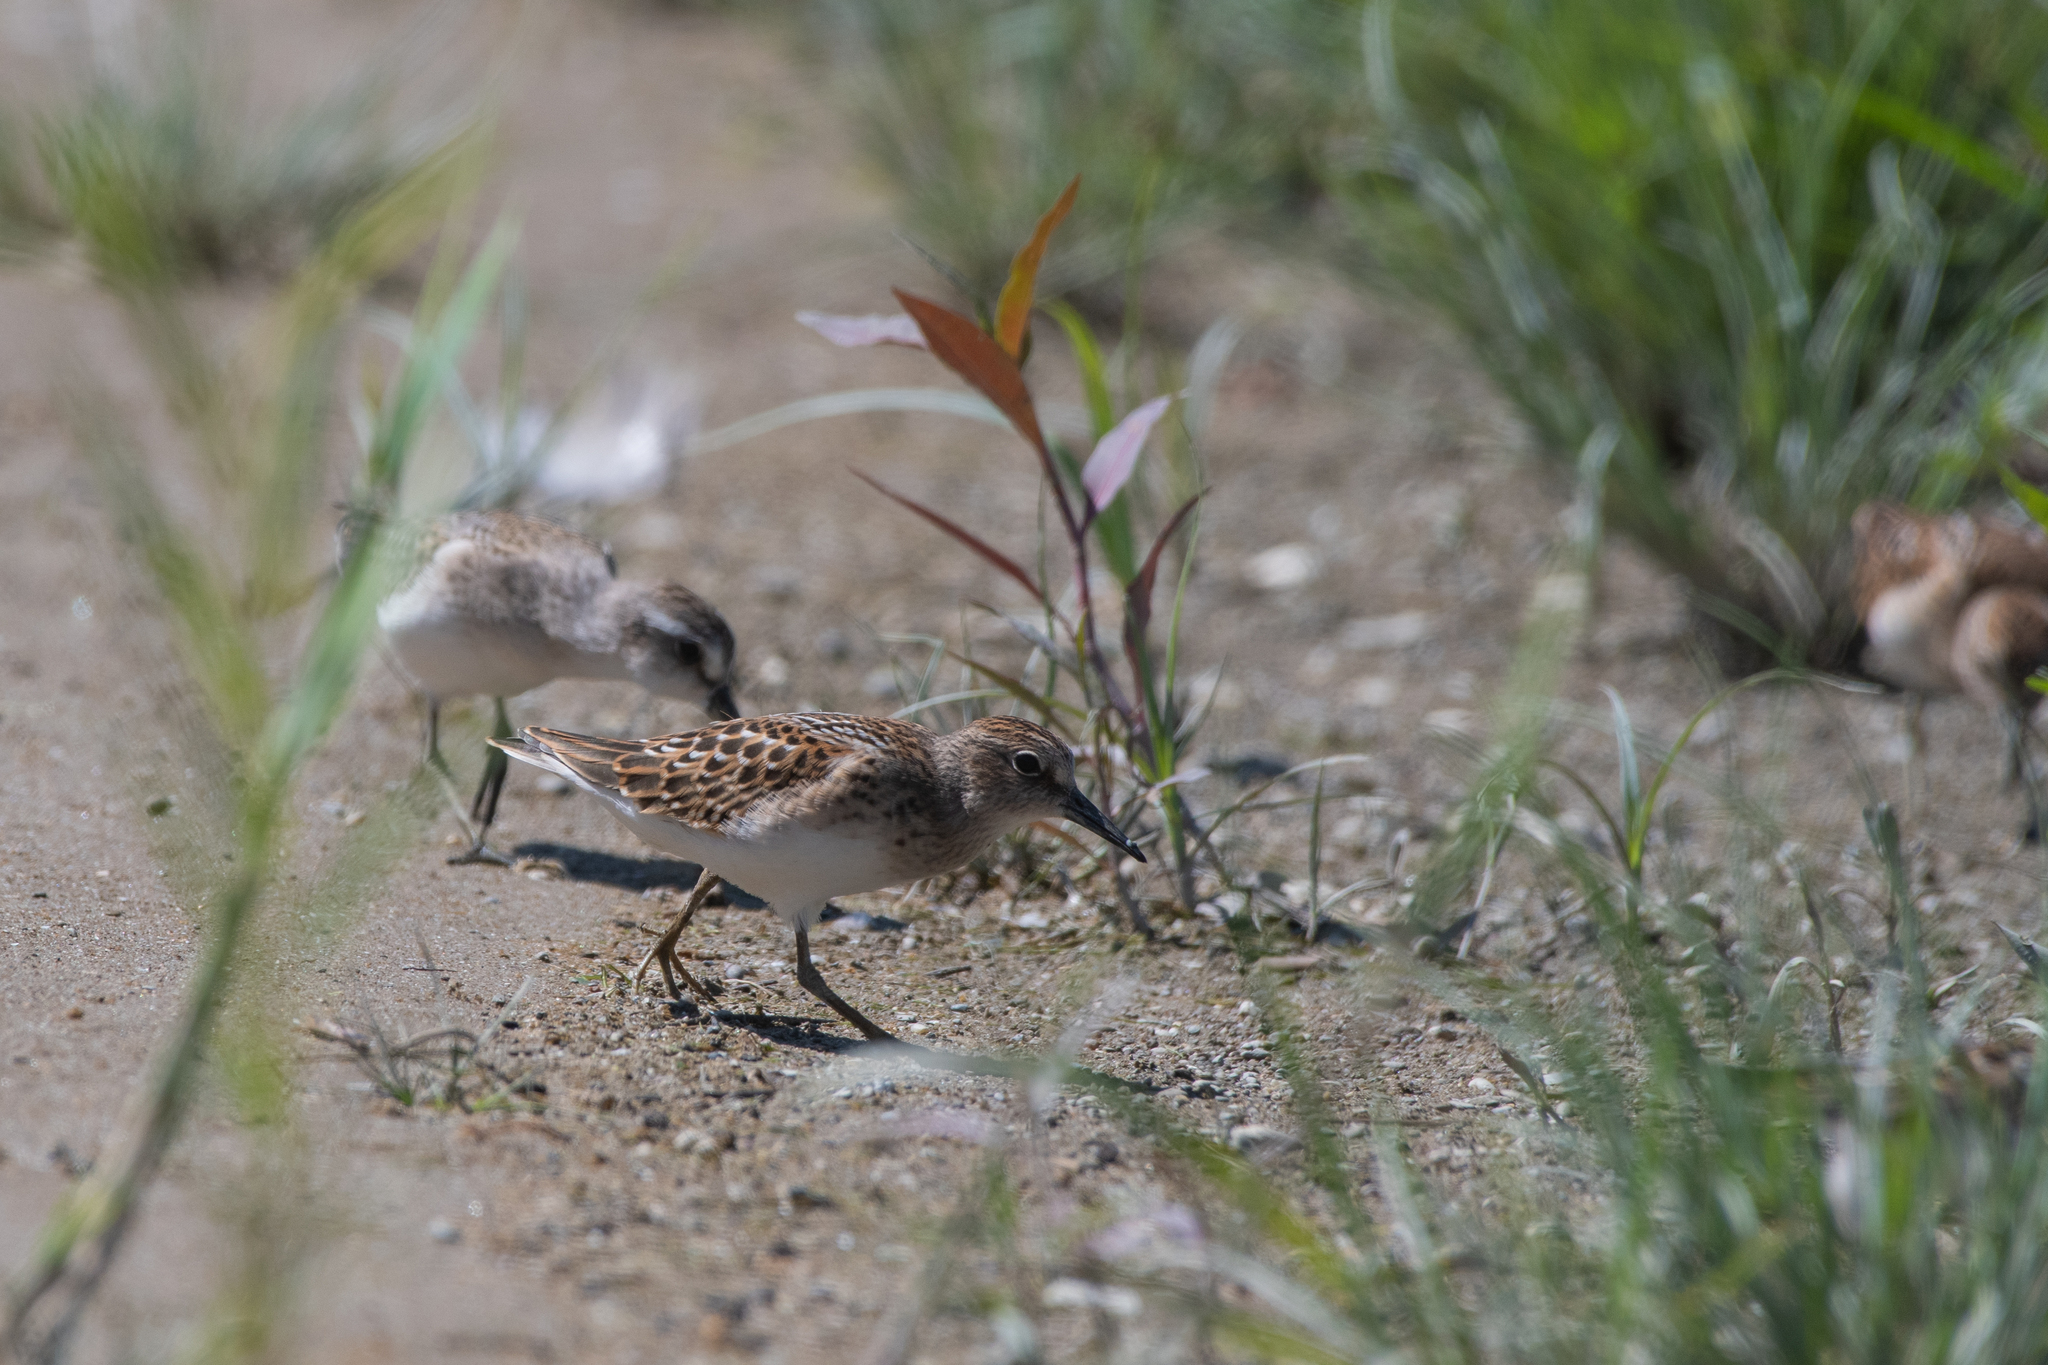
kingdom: Animalia
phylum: Chordata
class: Aves
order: Charadriiformes
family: Scolopacidae
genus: Calidris
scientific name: Calidris minutilla
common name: Least sandpiper
